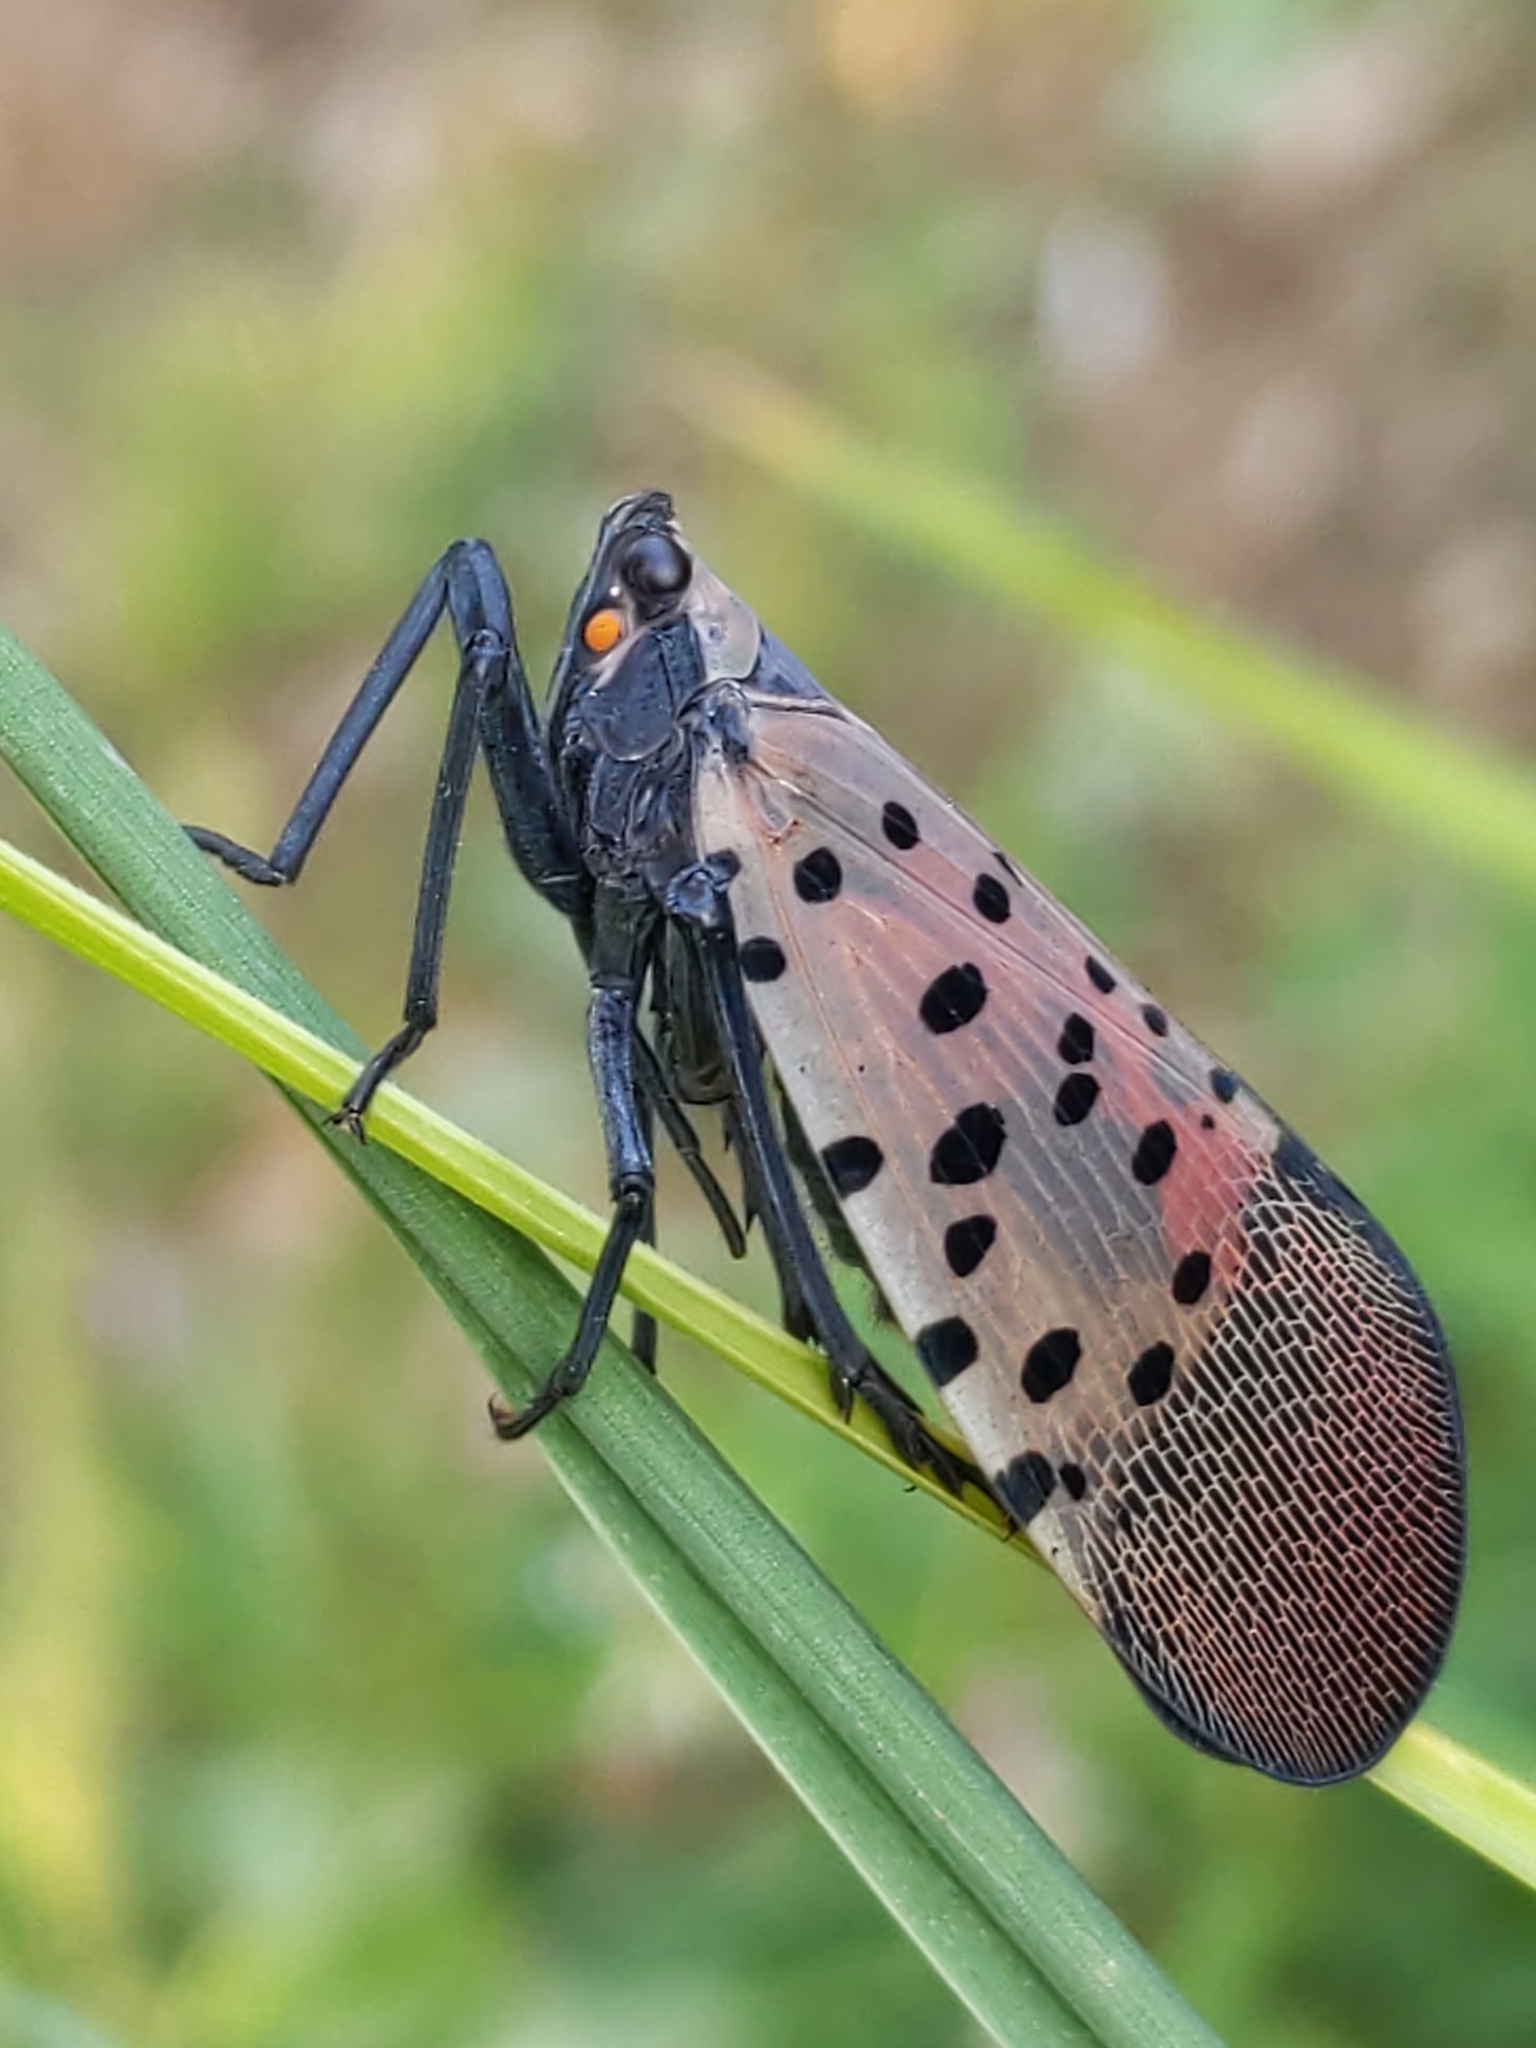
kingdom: Animalia
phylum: Arthropoda
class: Insecta
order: Hemiptera
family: Fulgoridae
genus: Lycorma
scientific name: Lycorma delicatula
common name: Spotted lanternfly
